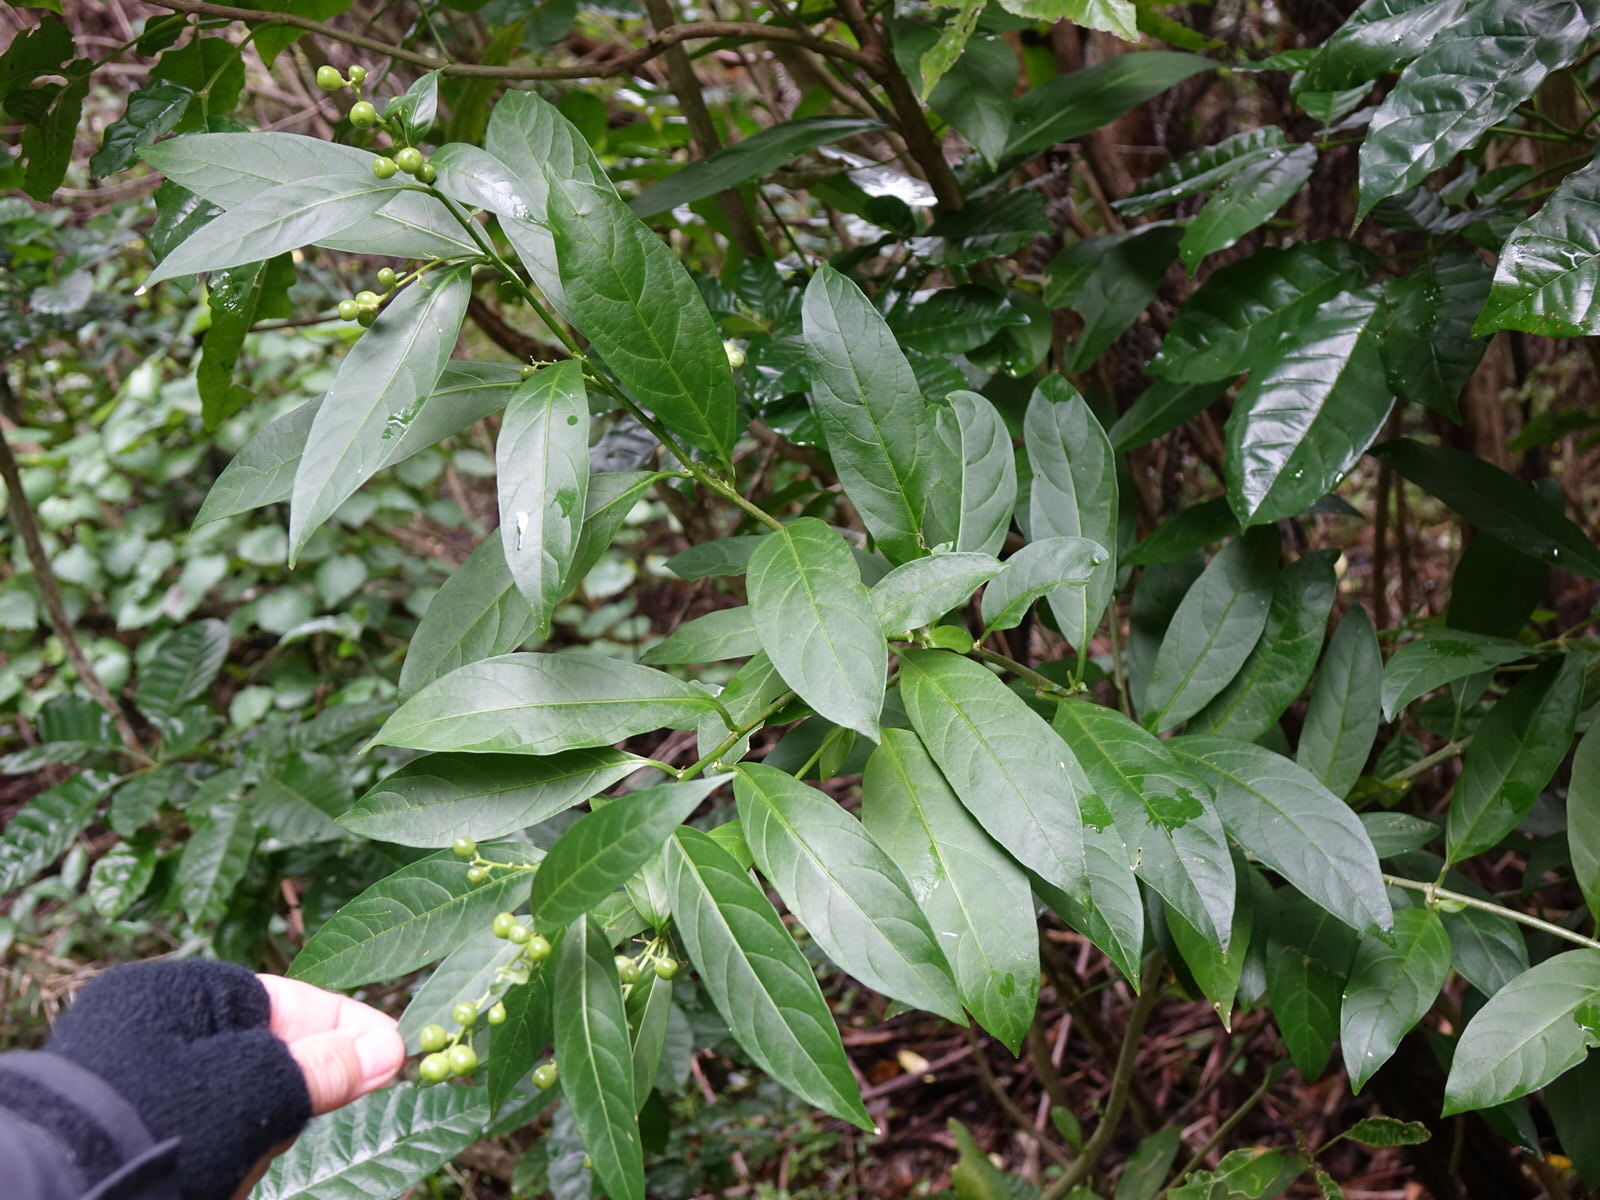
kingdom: Plantae
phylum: Tracheophyta
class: Magnoliopsida
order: Solanales
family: Solanaceae
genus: Cestrum
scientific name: Cestrum nocturnum
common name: Night jessamine
